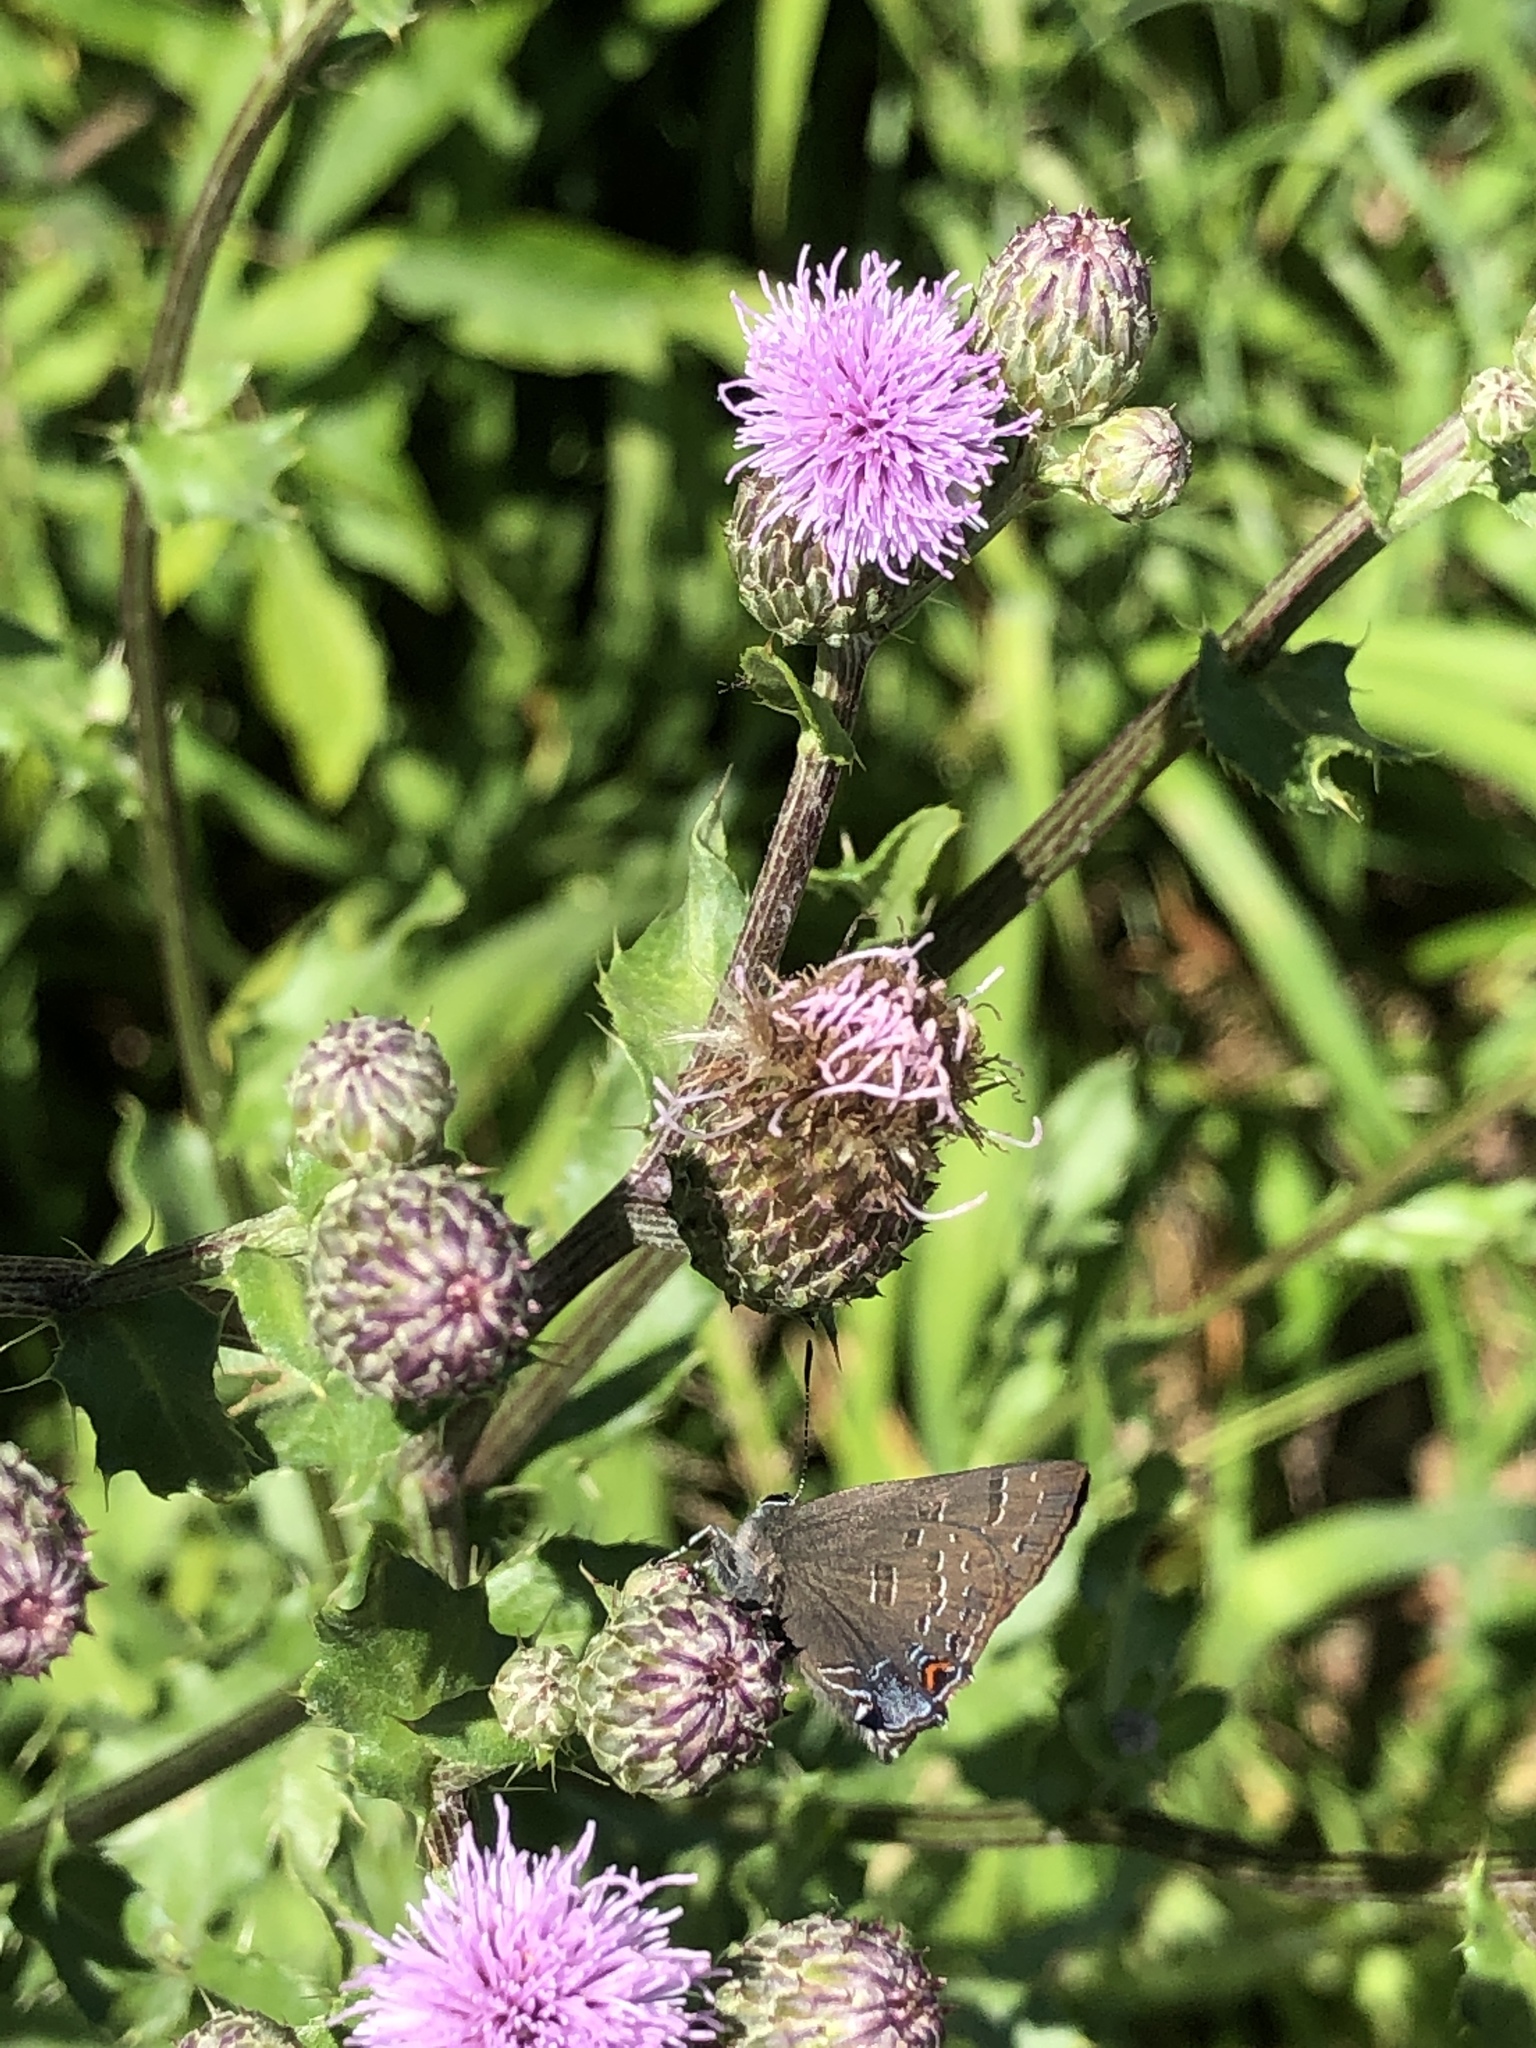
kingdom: Animalia
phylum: Arthropoda
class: Insecta
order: Lepidoptera
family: Lycaenidae
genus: Satyrium
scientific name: Satyrium calanus
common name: Banded hairstreak
